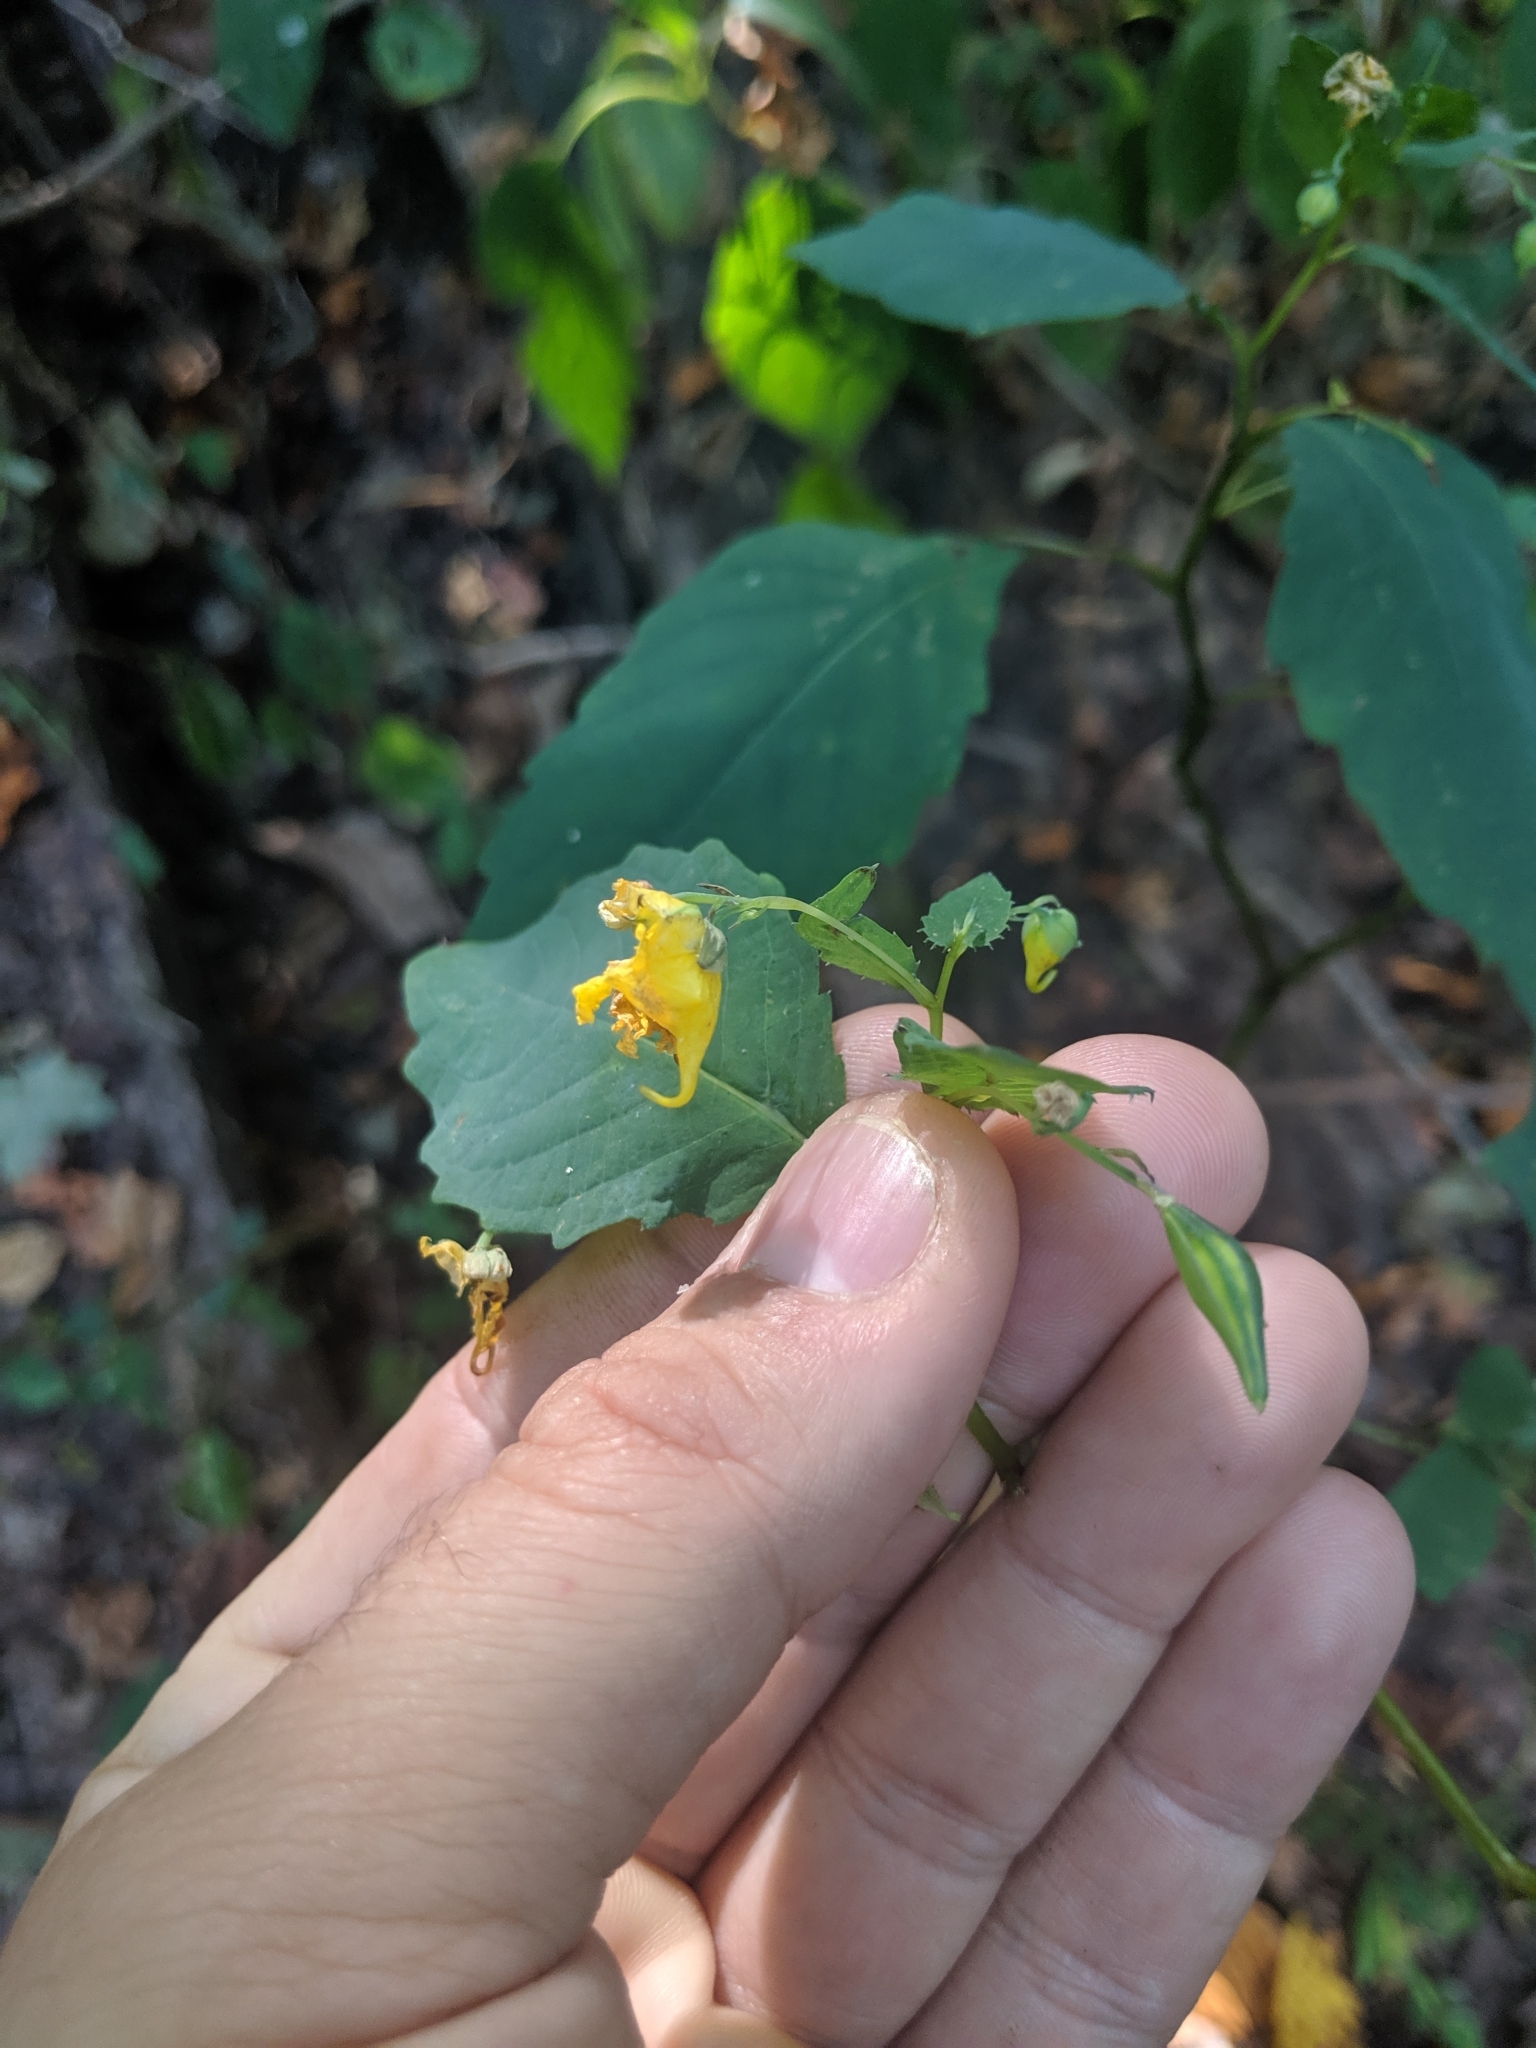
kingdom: Plantae
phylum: Tracheophyta
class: Magnoliopsida
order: Ericales
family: Balsaminaceae
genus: Impatiens
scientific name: Impatiens pallida
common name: Pale snapweed
